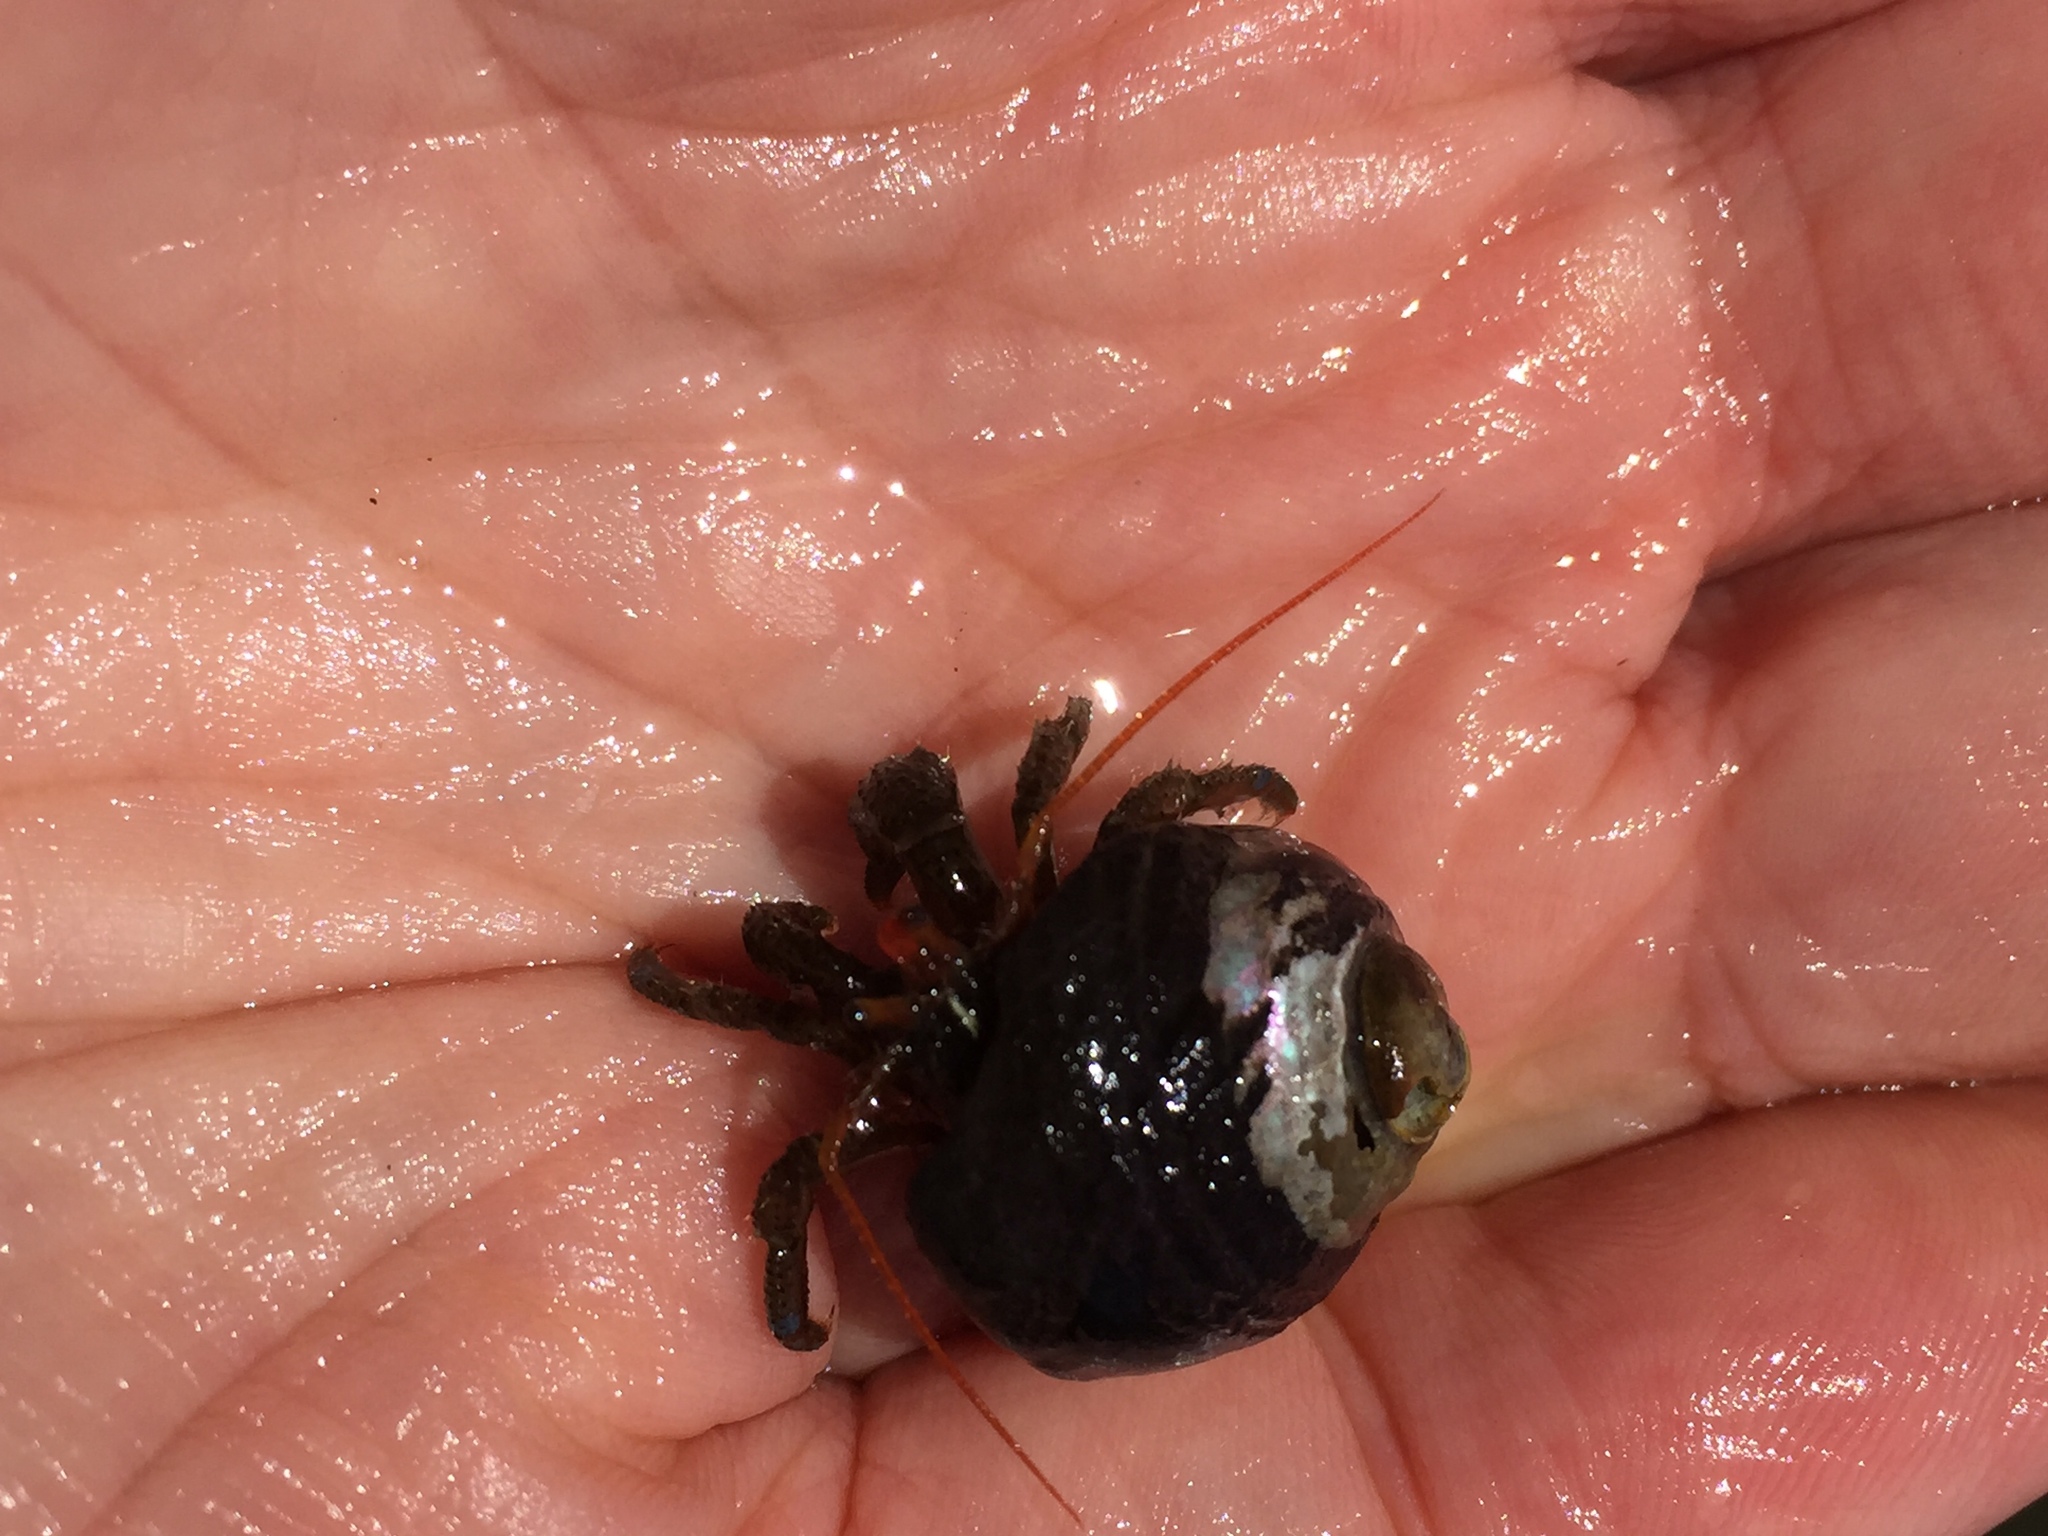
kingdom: Animalia
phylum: Arthropoda
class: Malacostraca
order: Decapoda
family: Paguridae
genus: Pagurus
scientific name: Pagurus samuelis
